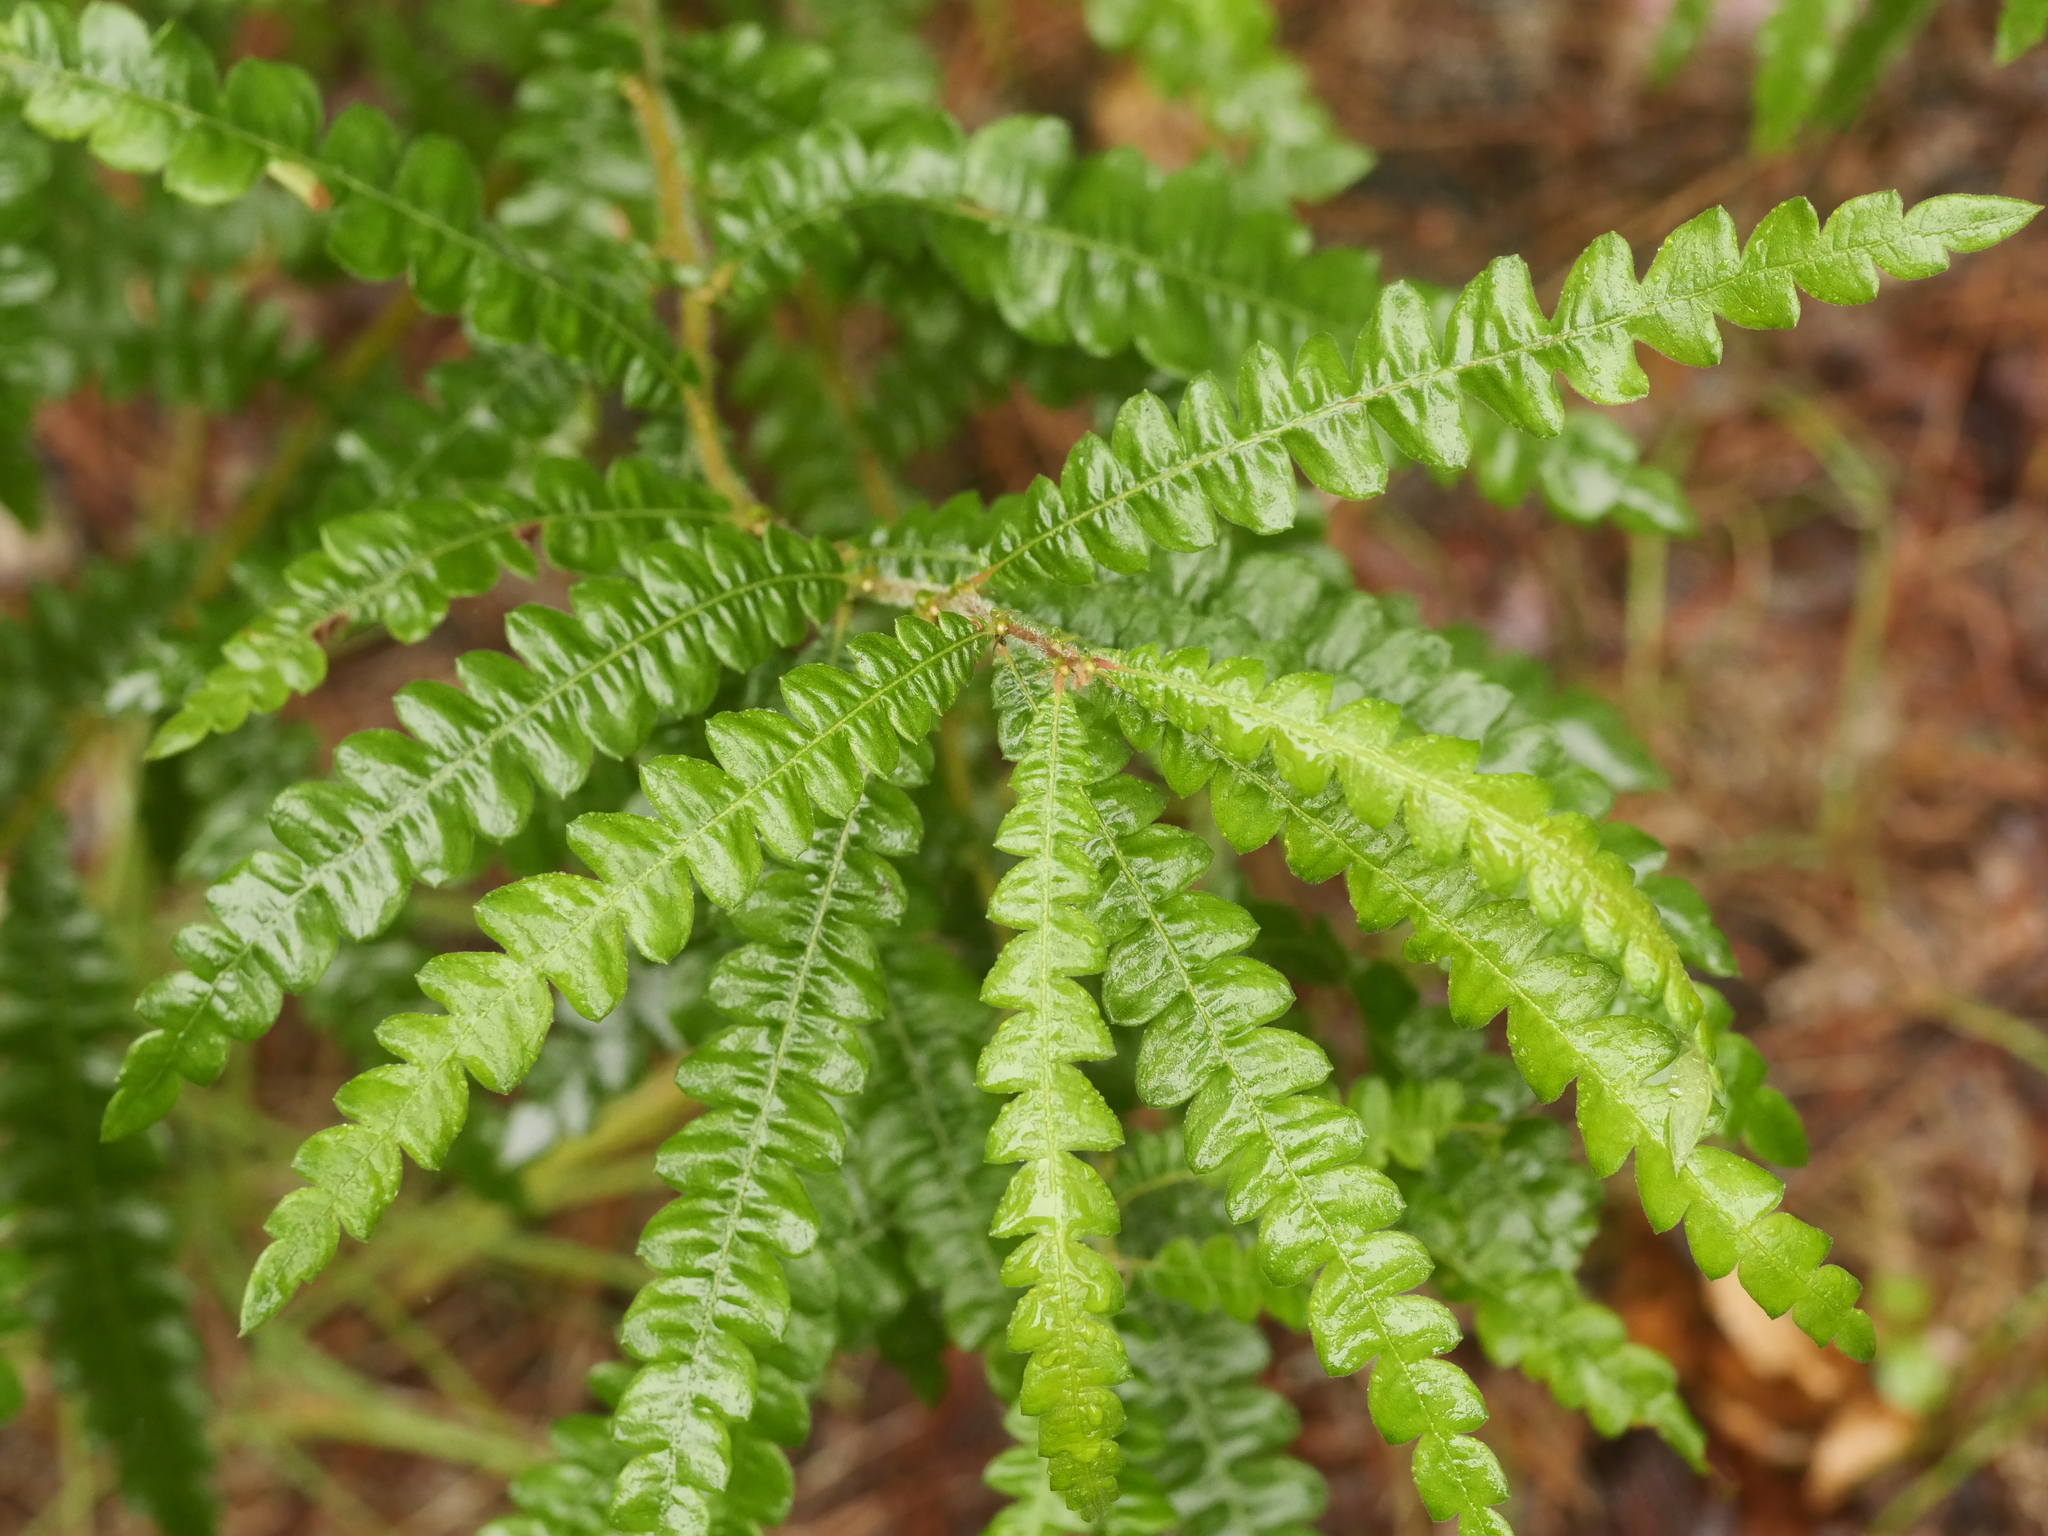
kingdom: Plantae
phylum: Tracheophyta
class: Magnoliopsida
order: Fagales
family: Myricaceae
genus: Comptonia
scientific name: Comptonia peregrina
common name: Sweet-fern
